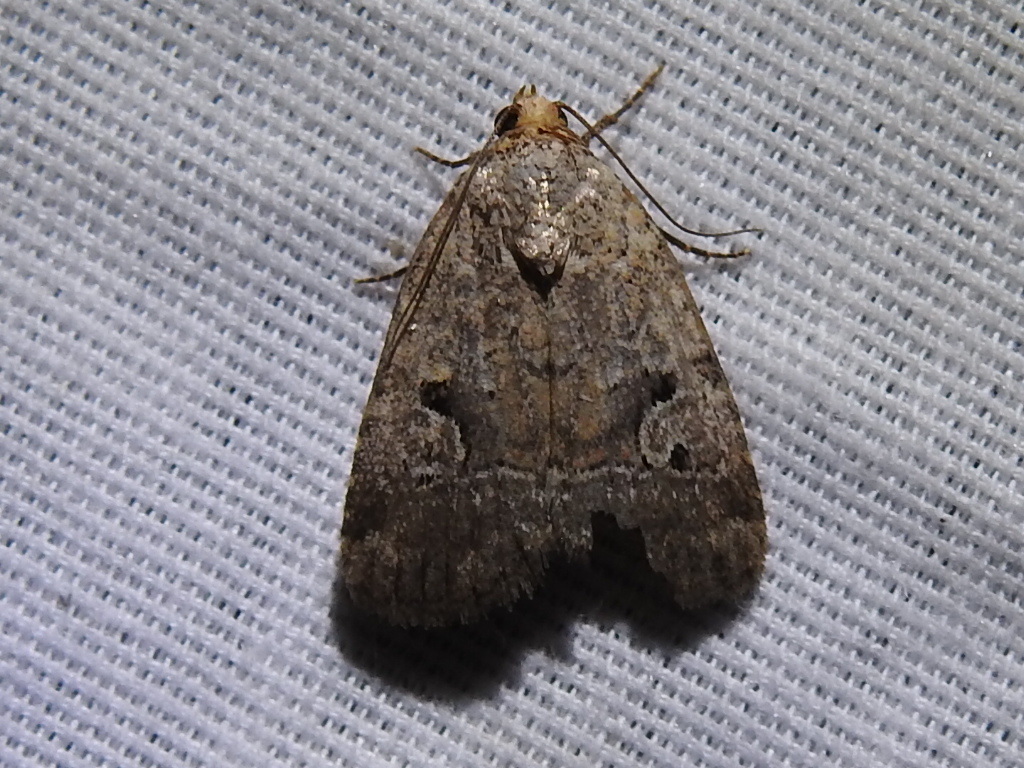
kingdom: Animalia
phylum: Arthropoda
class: Insecta
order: Lepidoptera
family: Noctuidae
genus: Elaphria
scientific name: Elaphria festivoides
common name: Festive midget
